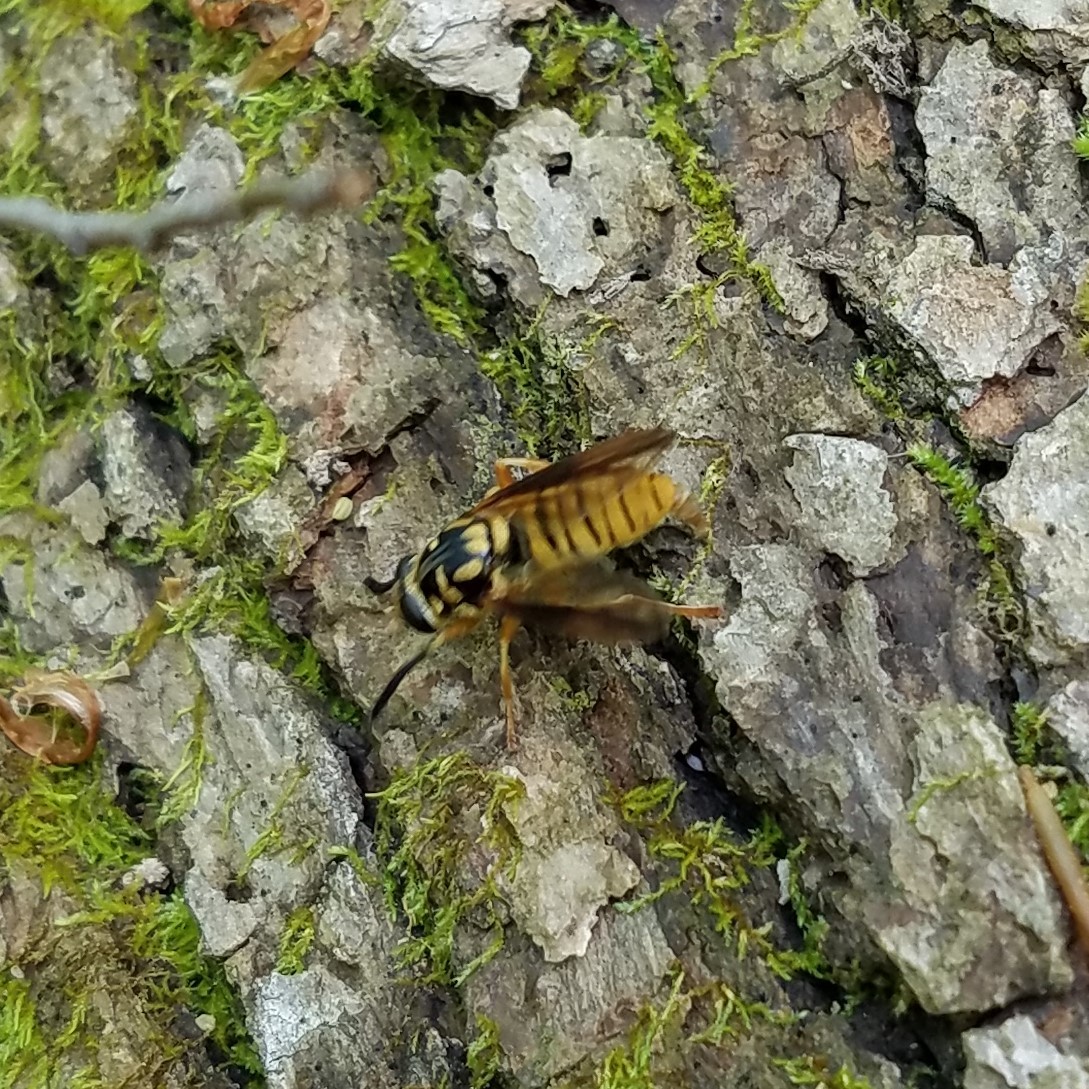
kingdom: Animalia
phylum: Arthropoda
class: Insecta
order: Diptera
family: Syrphidae
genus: Temnostoma
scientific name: Temnostoma daochum
